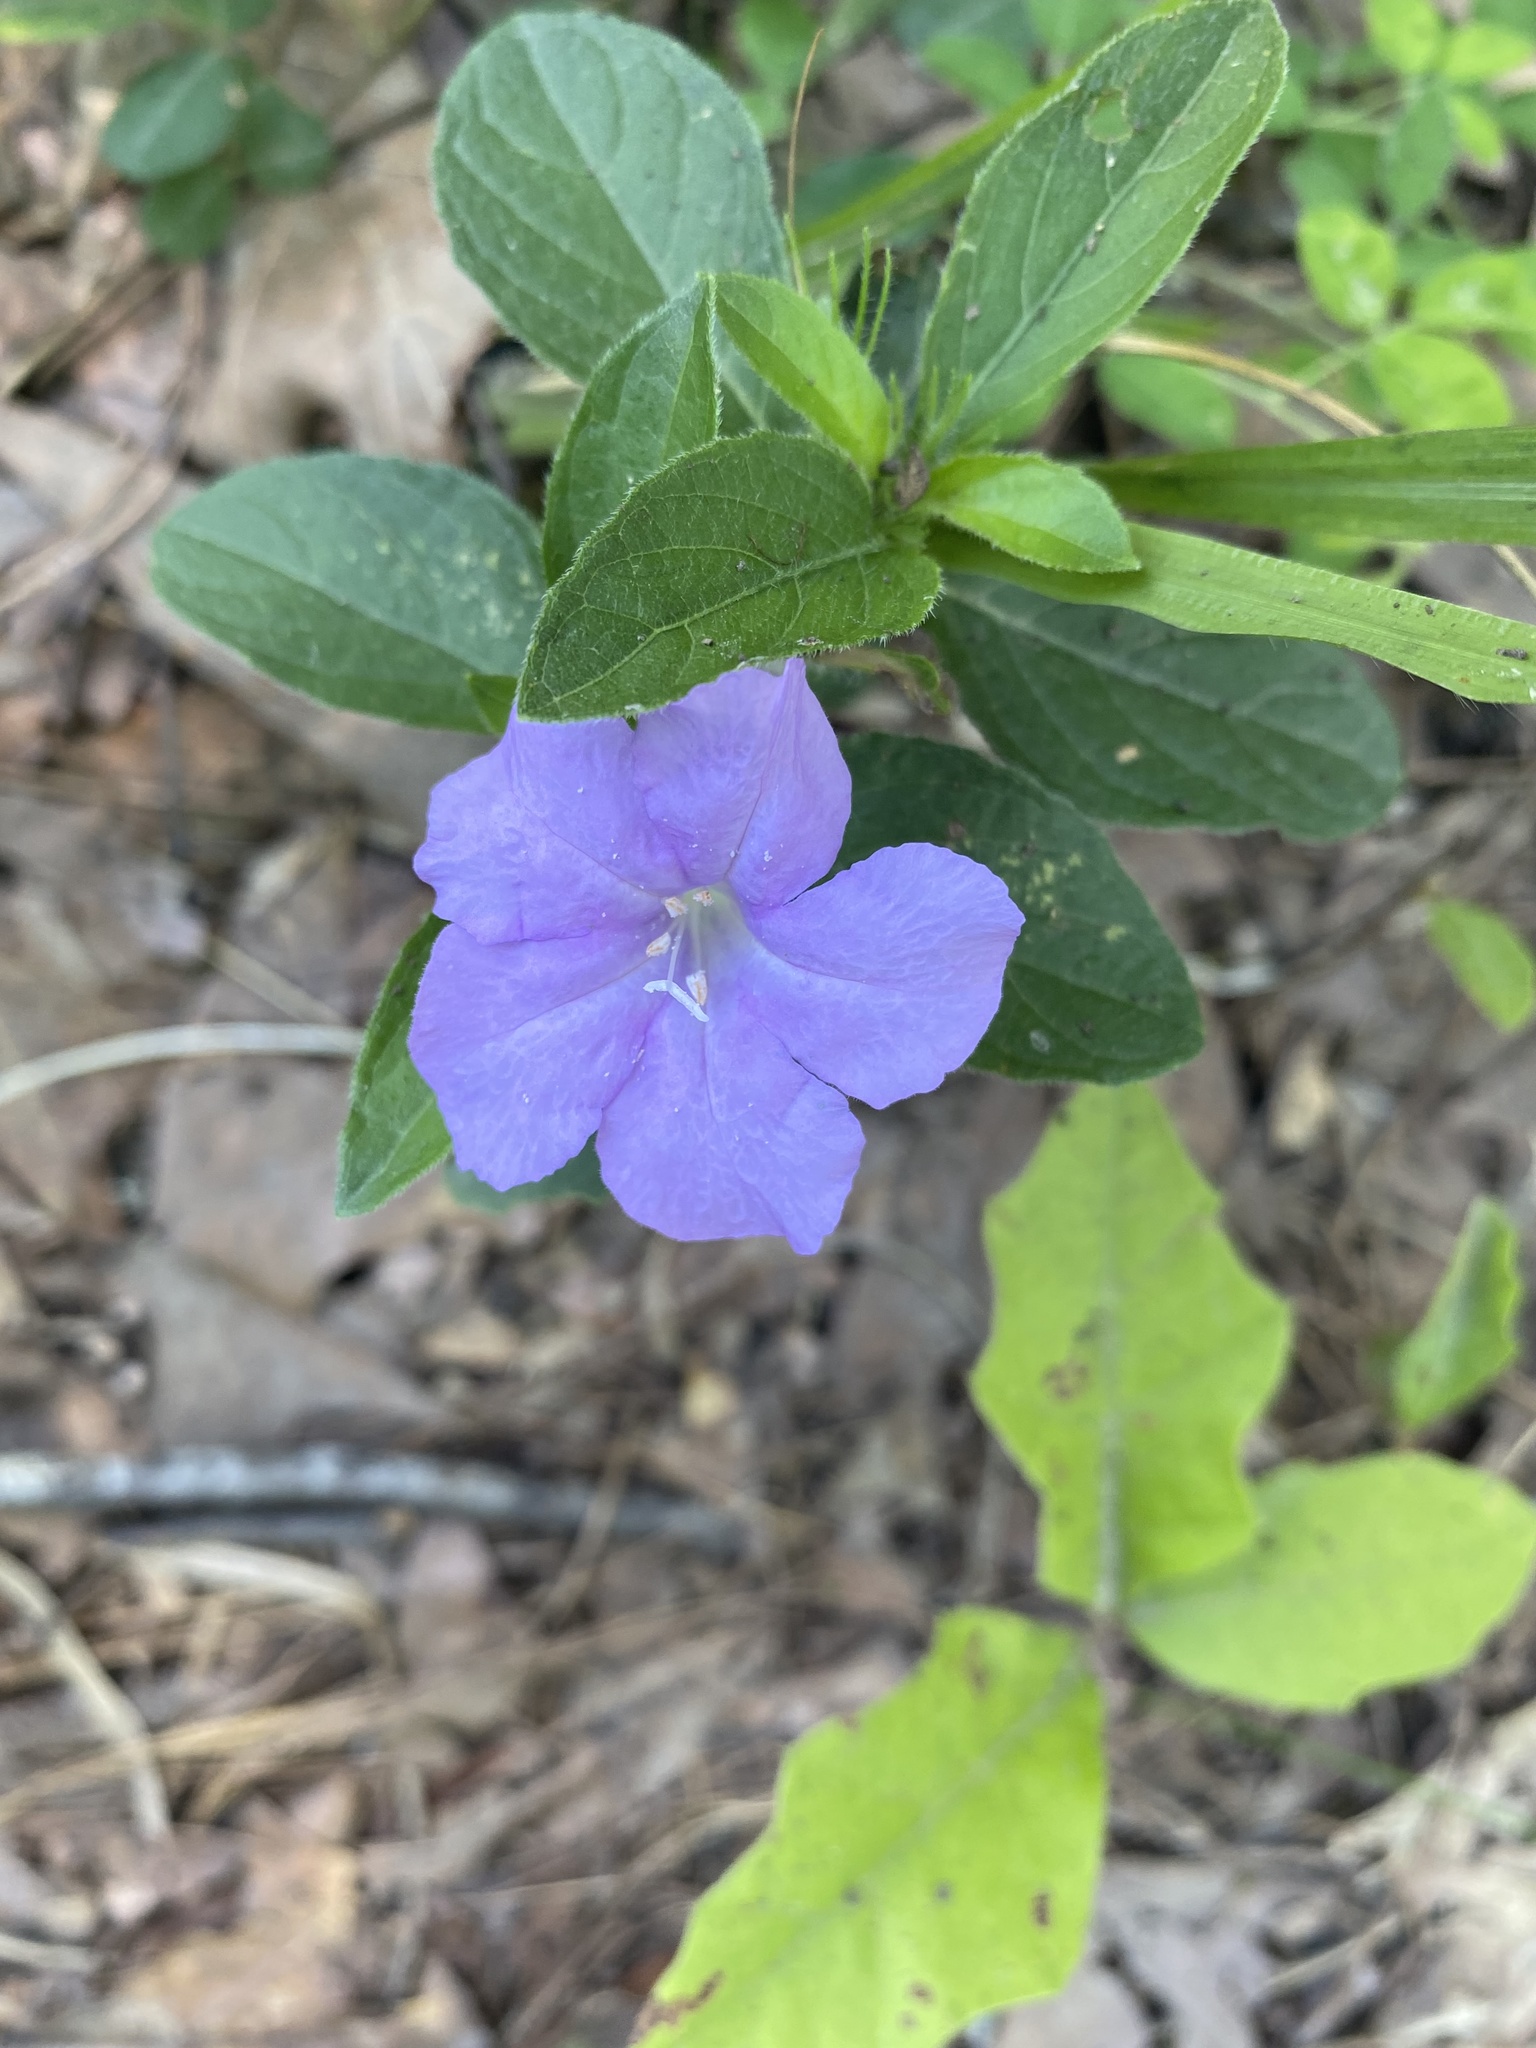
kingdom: Plantae
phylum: Tracheophyta
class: Magnoliopsida
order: Lamiales
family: Acanthaceae
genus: Ruellia
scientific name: Ruellia caroliniensis
